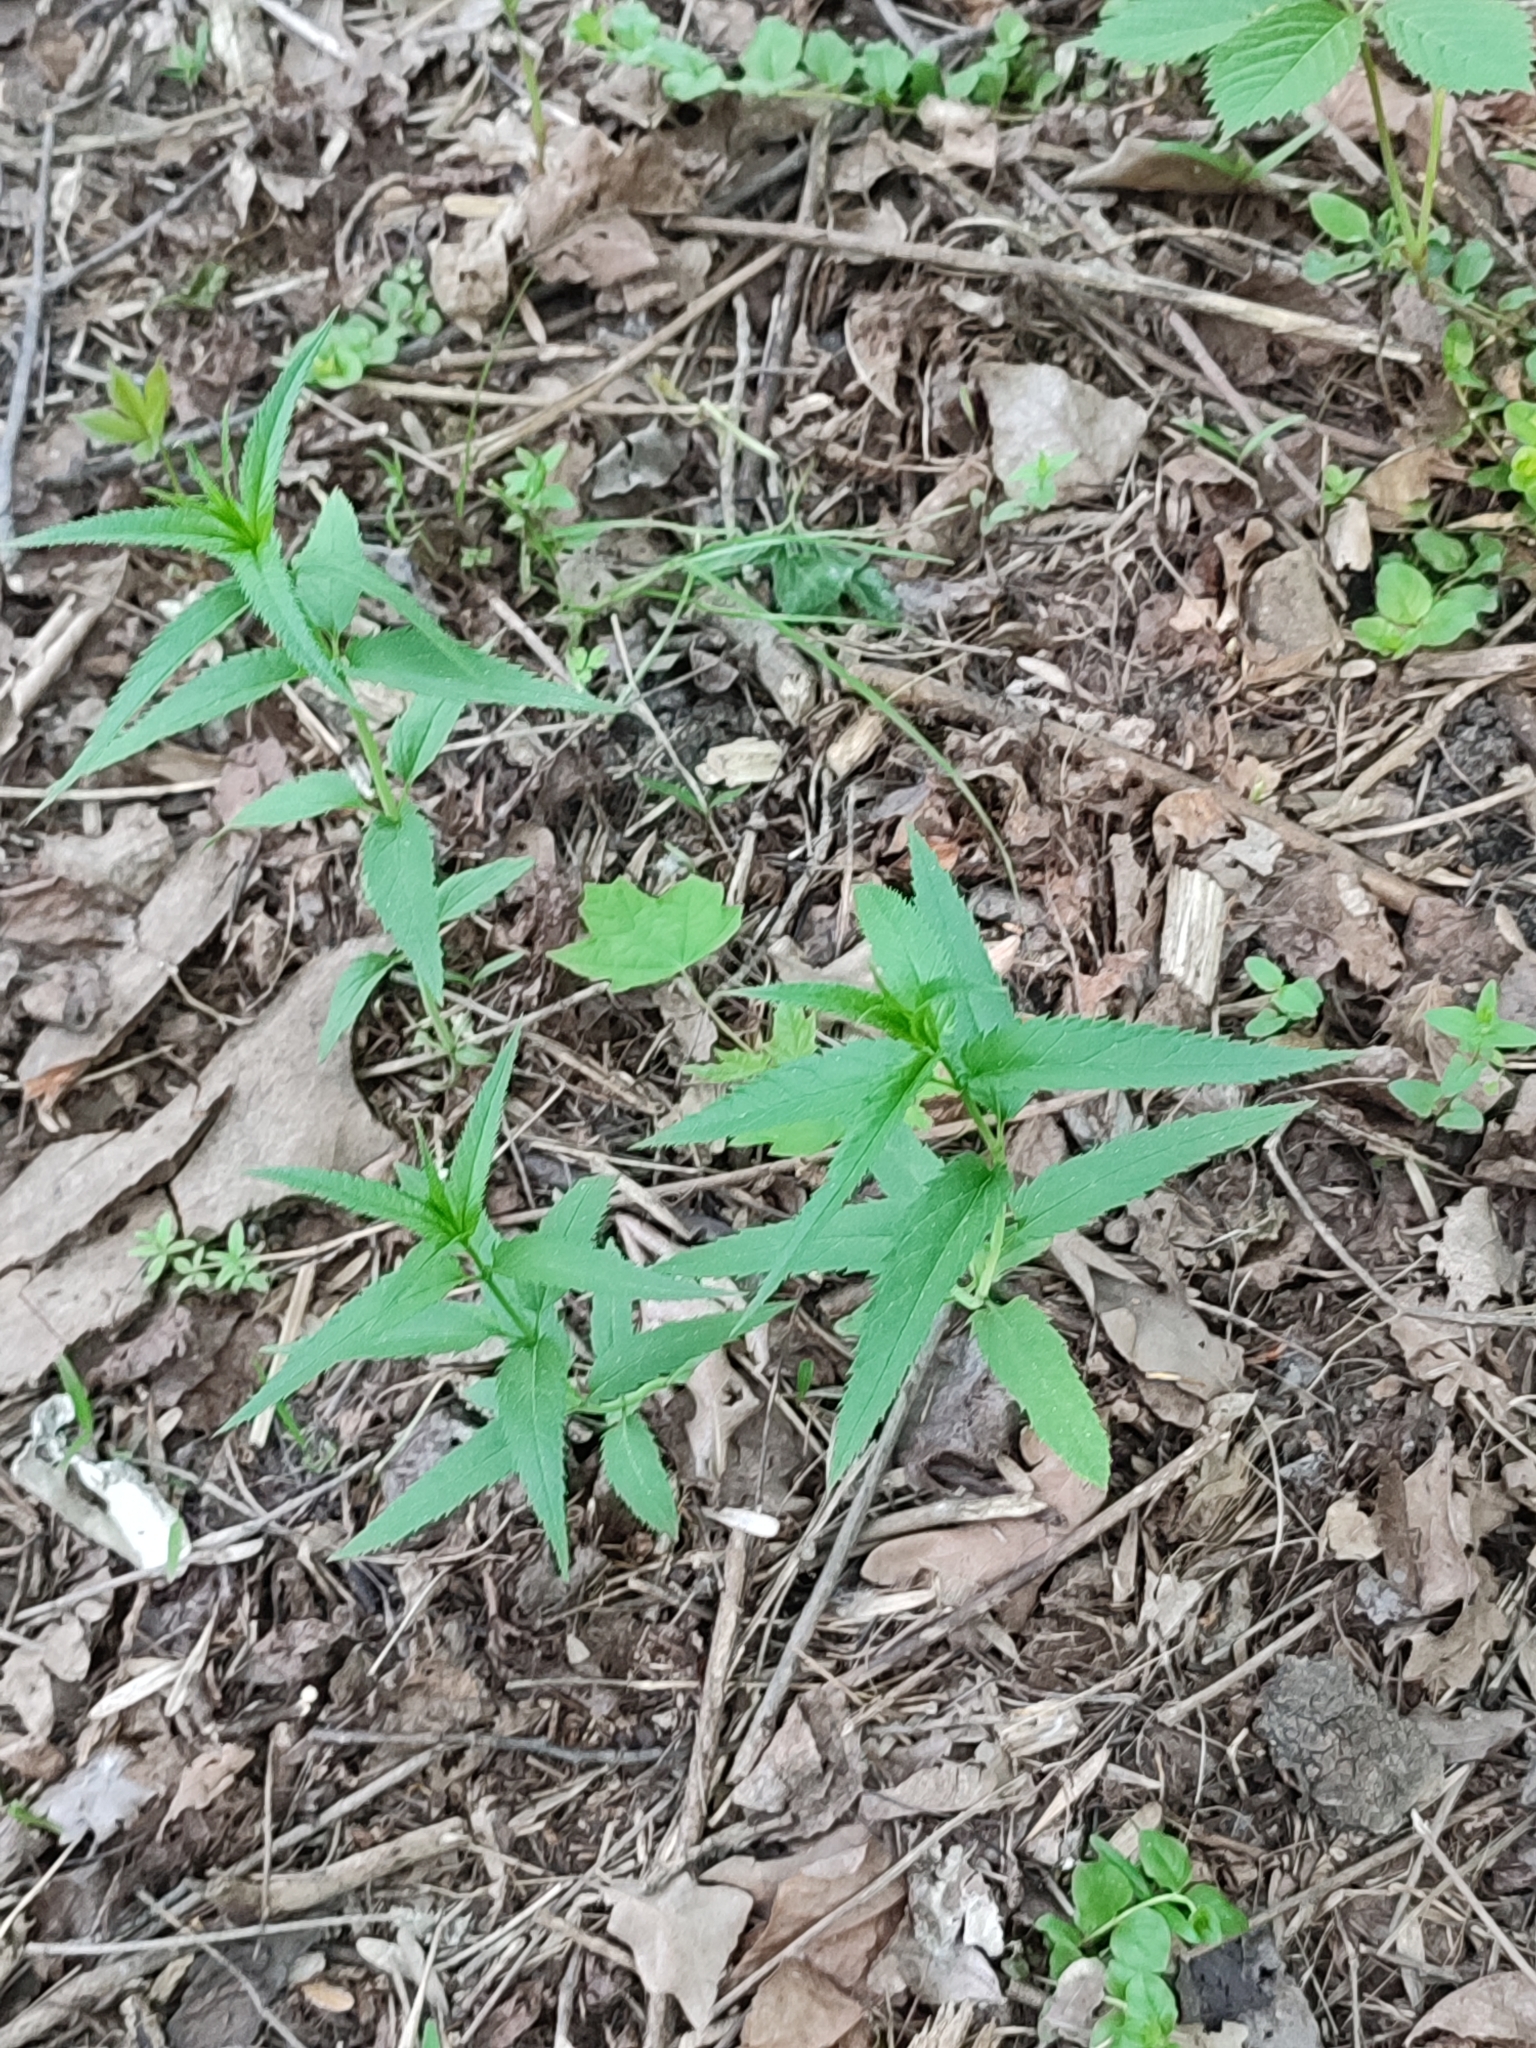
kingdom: Plantae
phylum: Tracheophyta
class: Magnoliopsida
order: Lamiales
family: Plantaginaceae
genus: Veronica
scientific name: Veronica longifolia
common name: Garden speedwell
